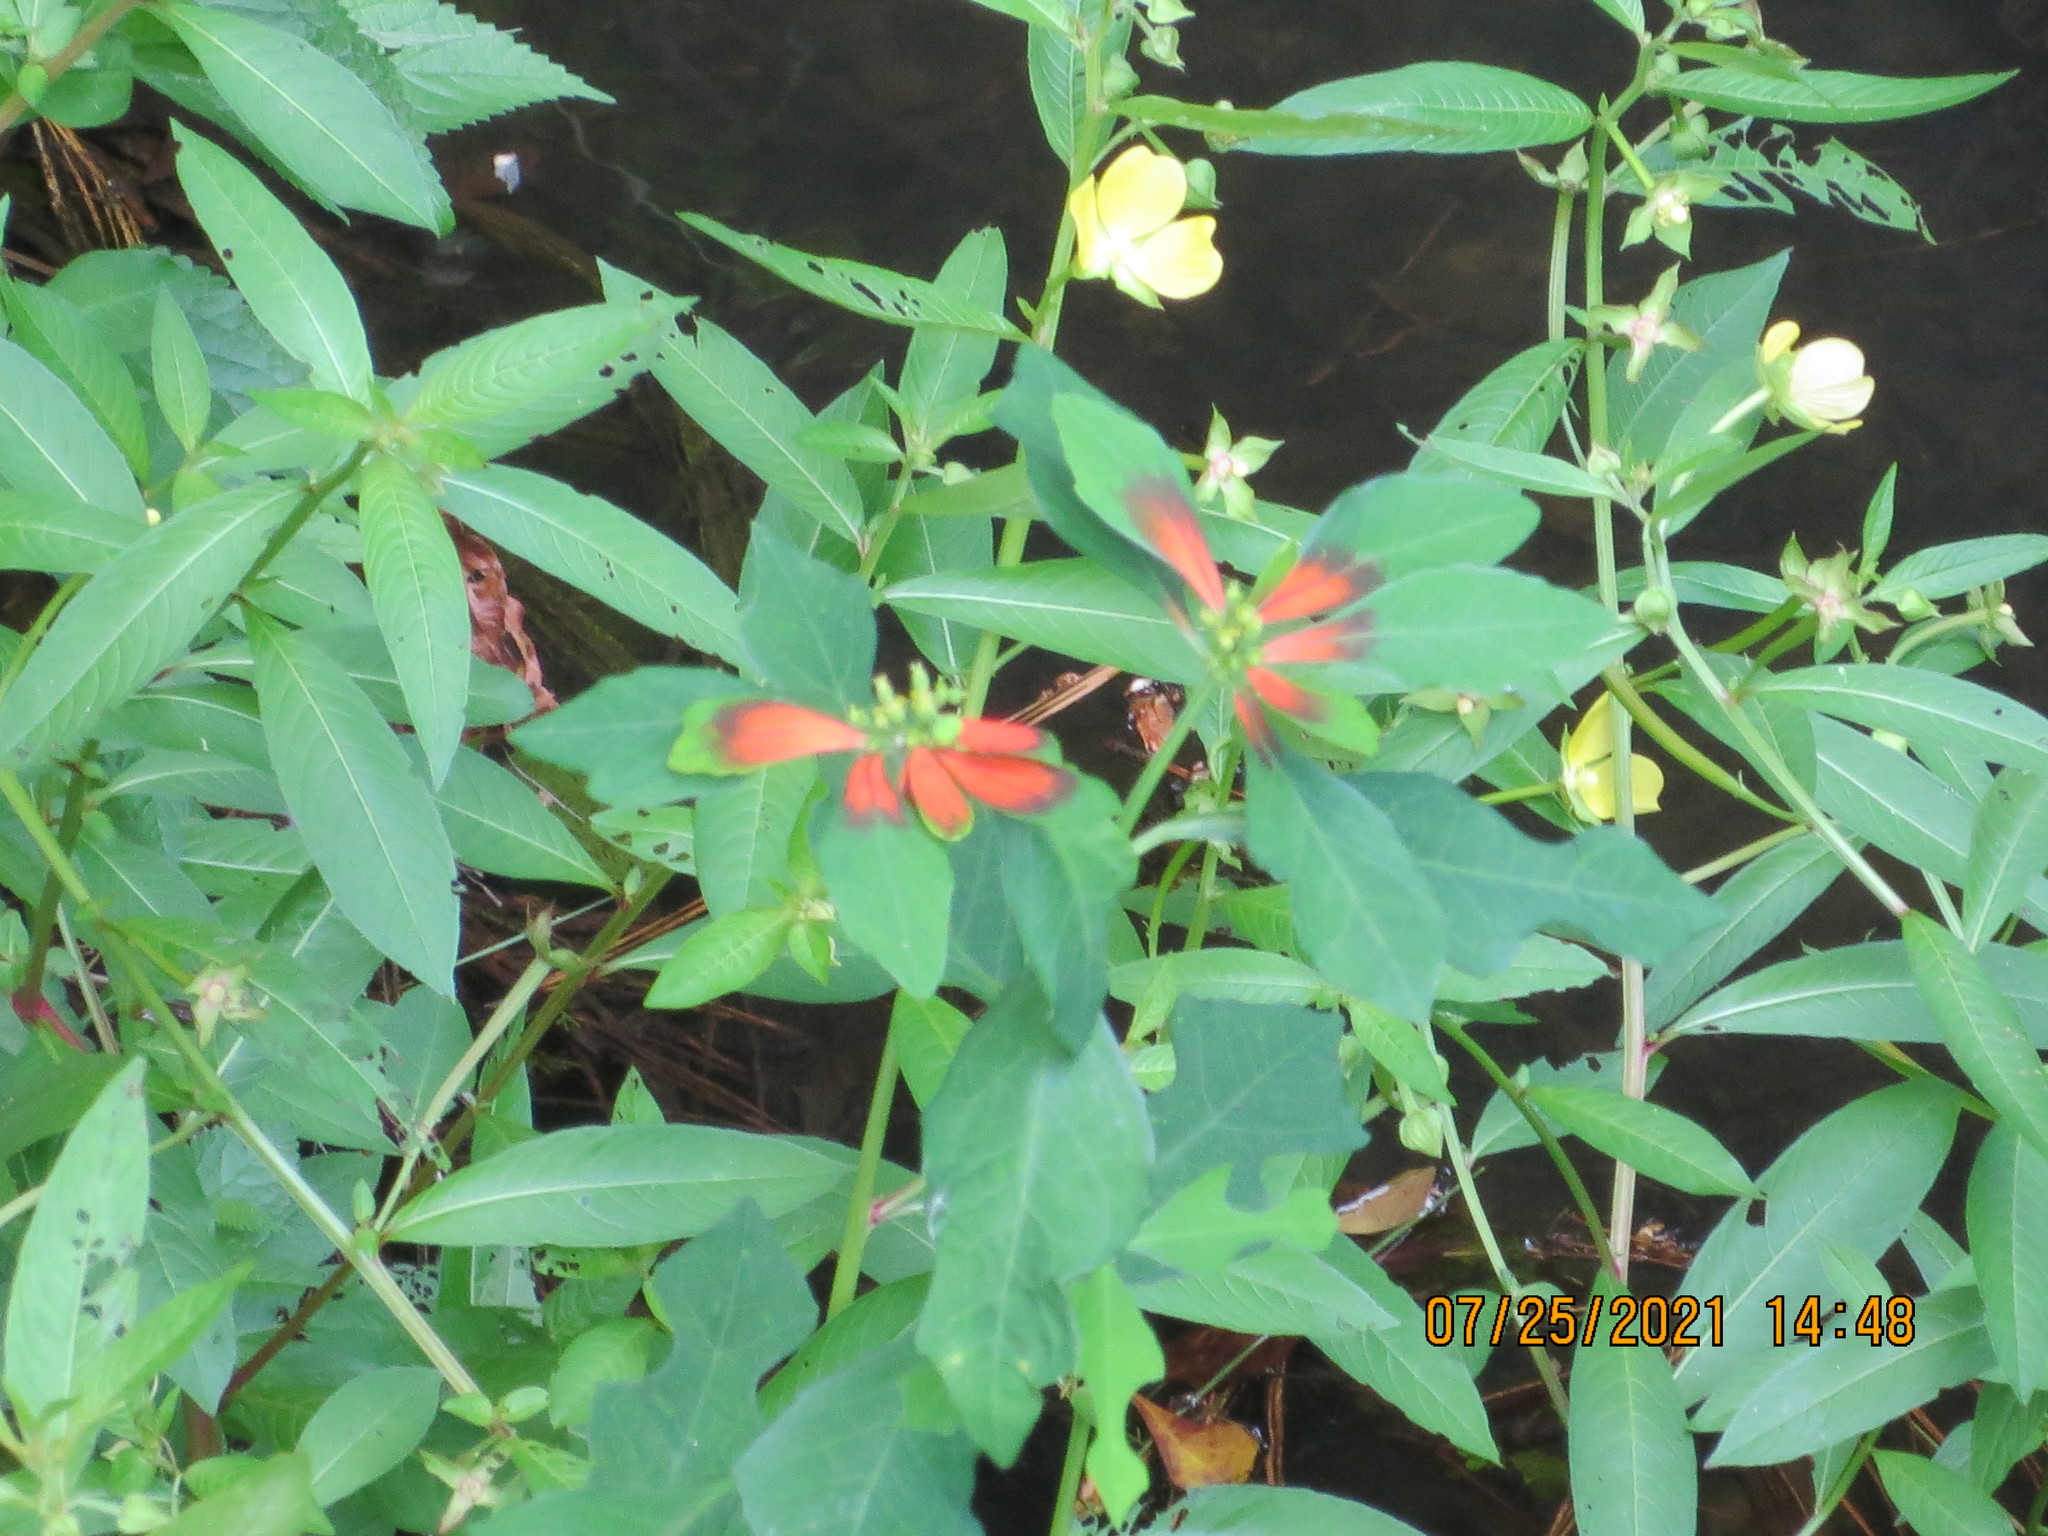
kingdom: Plantae
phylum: Tracheophyta
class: Magnoliopsida
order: Malpighiales
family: Euphorbiaceae
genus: Euphorbia
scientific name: Euphorbia heterophylla
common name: Mexican fireplant
